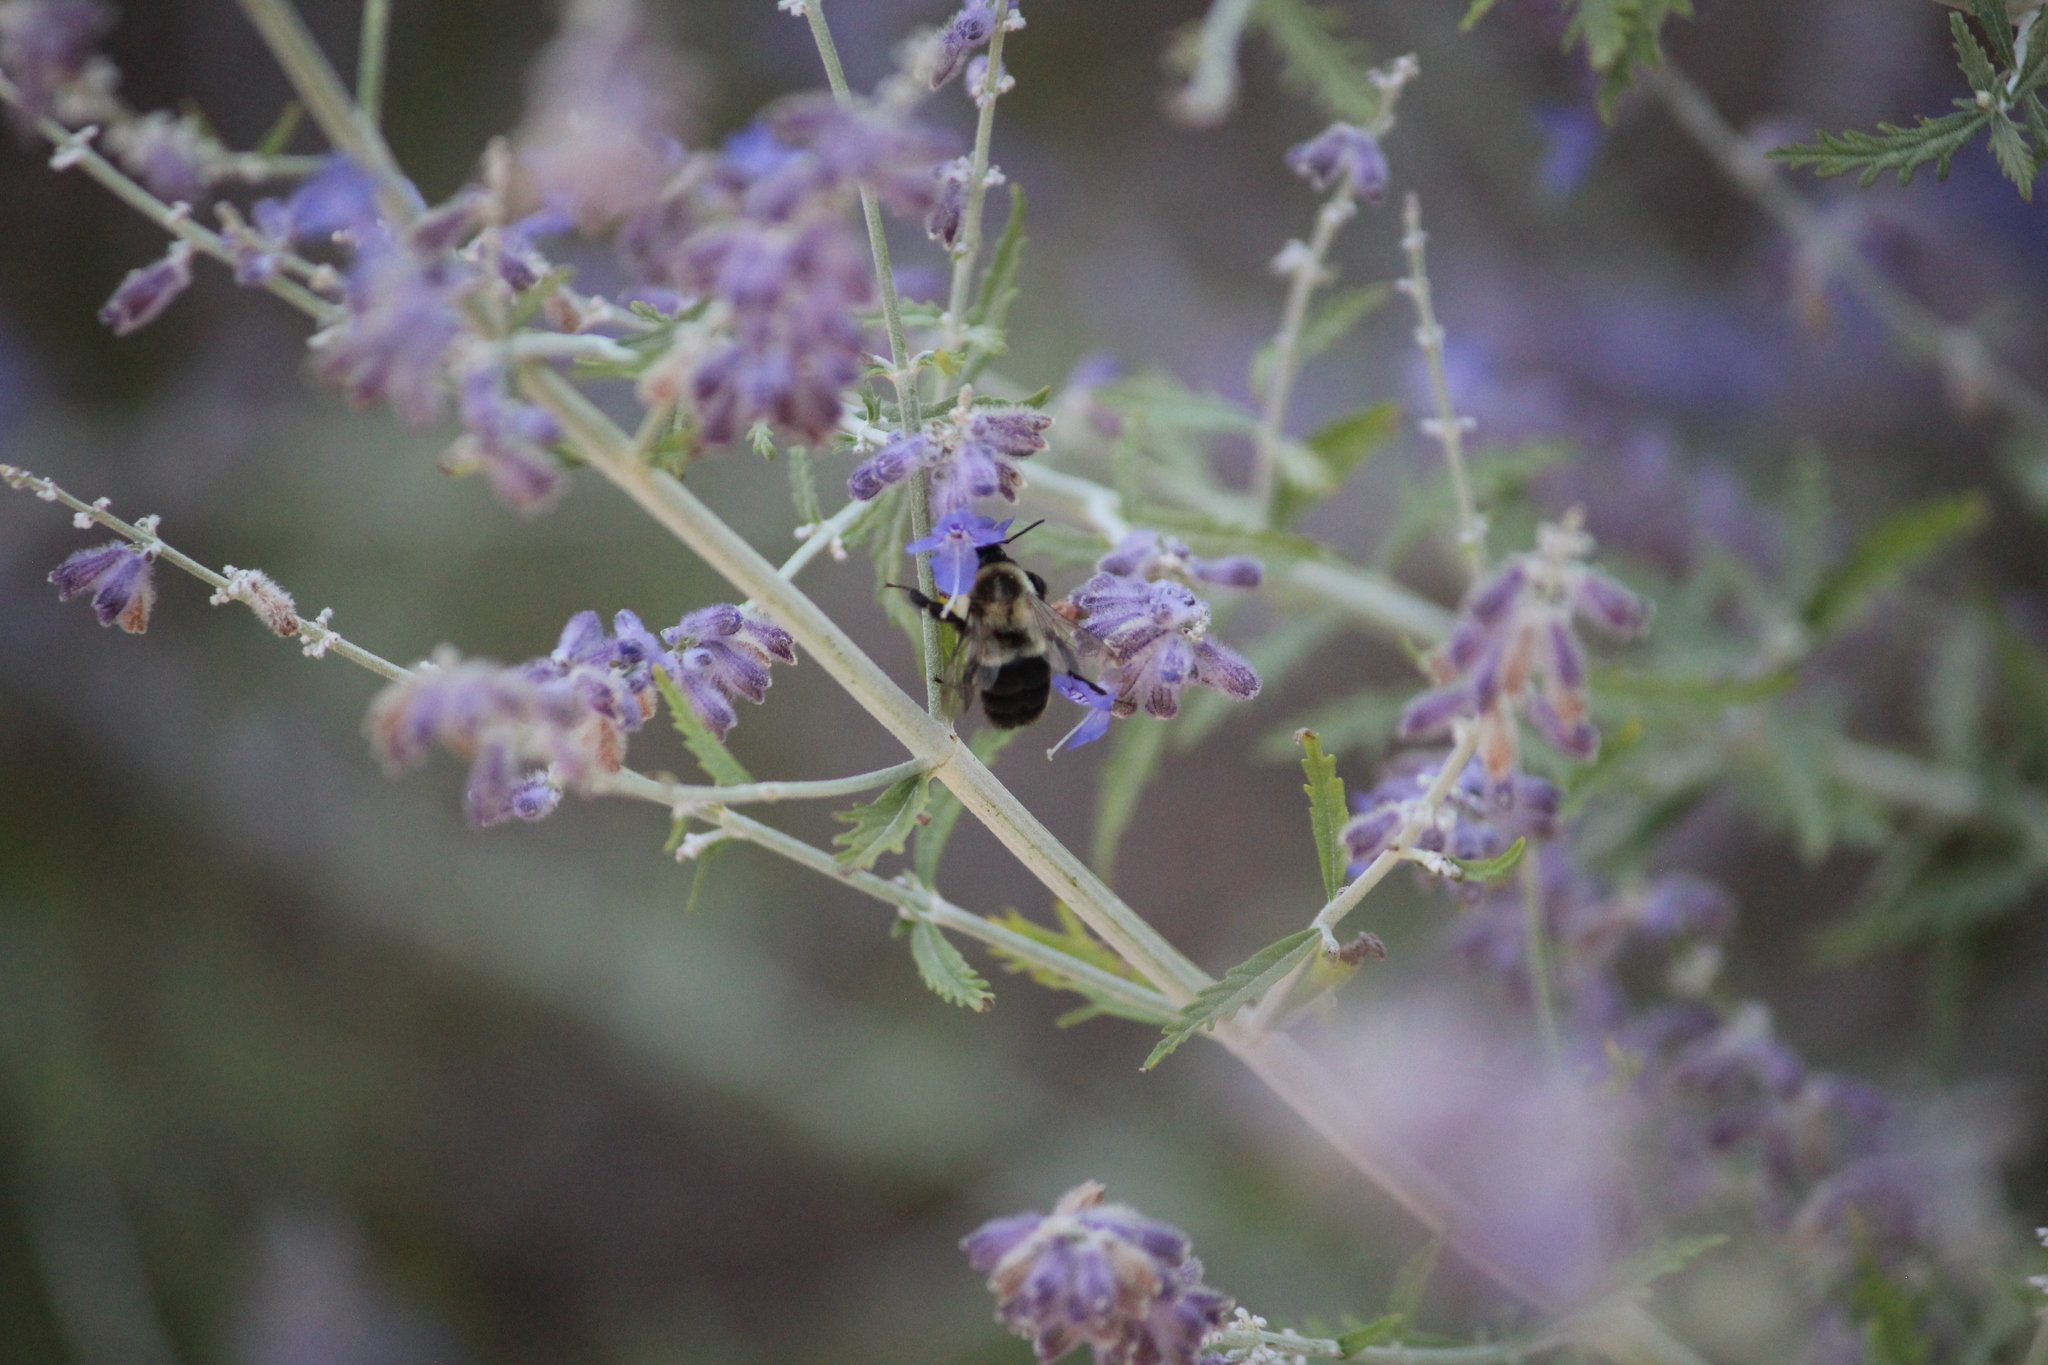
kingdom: Animalia
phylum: Arthropoda
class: Insecta
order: Hymenoptera
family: Apidae
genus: Bombus
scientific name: Bombus impatiens
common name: Common eastern bumble bee
